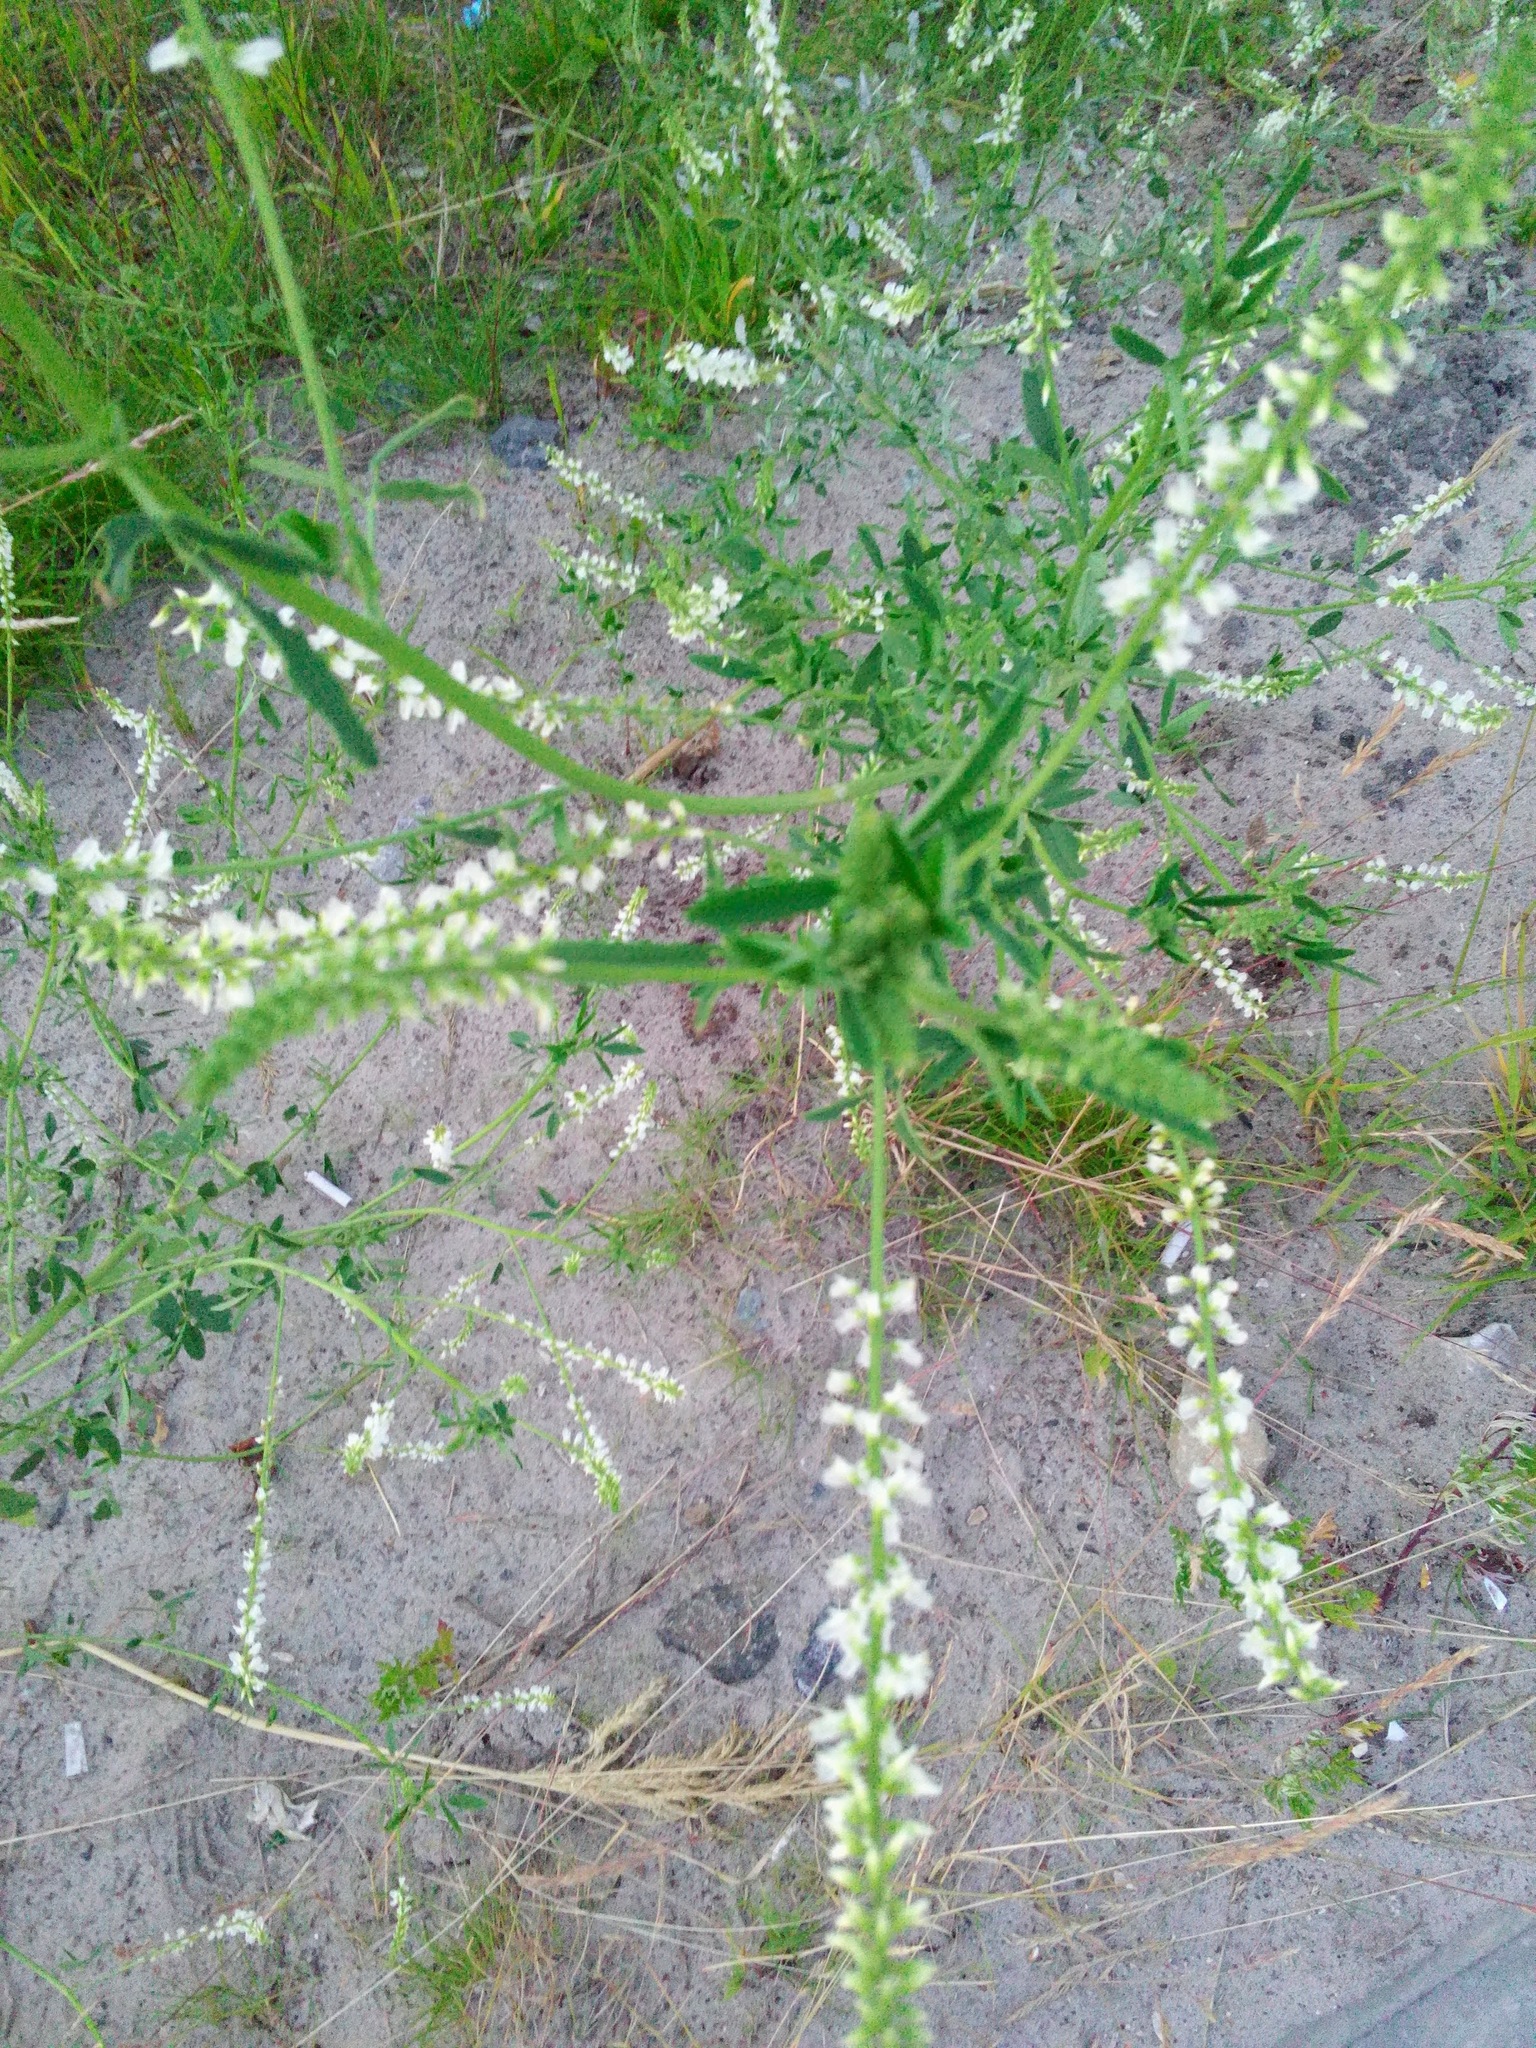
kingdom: Plantae
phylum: Tracheophyta
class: Magnoliopsida
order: Fabales
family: Fabaceae
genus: Melilotus
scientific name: Melilotus albus
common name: White melilot
